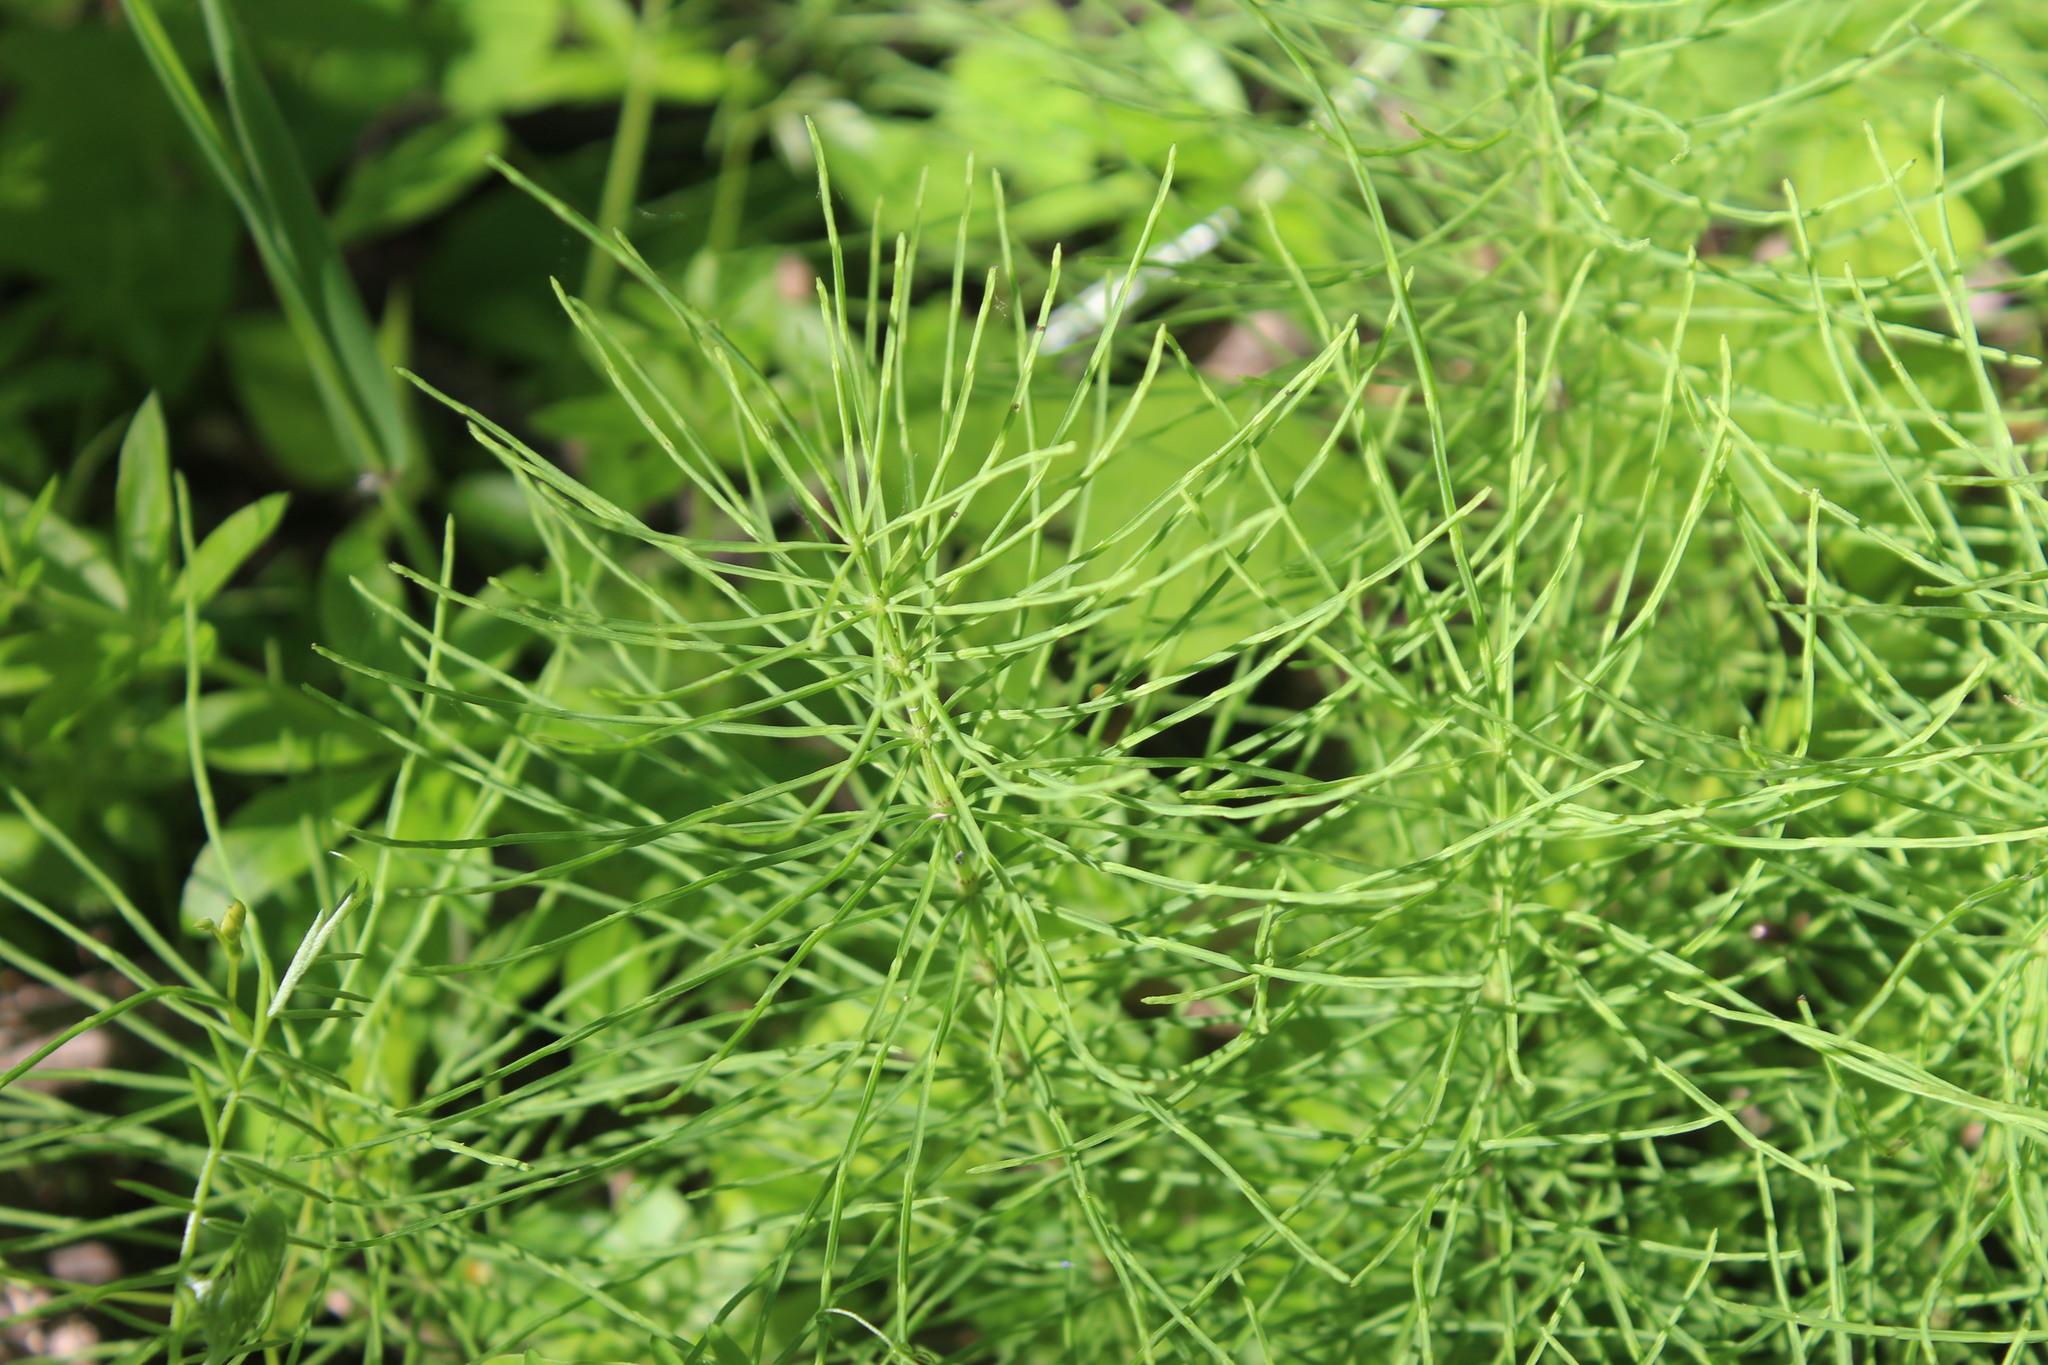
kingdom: Plantae
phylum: Tracheophyta
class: Polypodiopsida
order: Equisetales
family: Equisetaceae
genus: Equisetum
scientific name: Equisetum arvense
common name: Field horsetail
